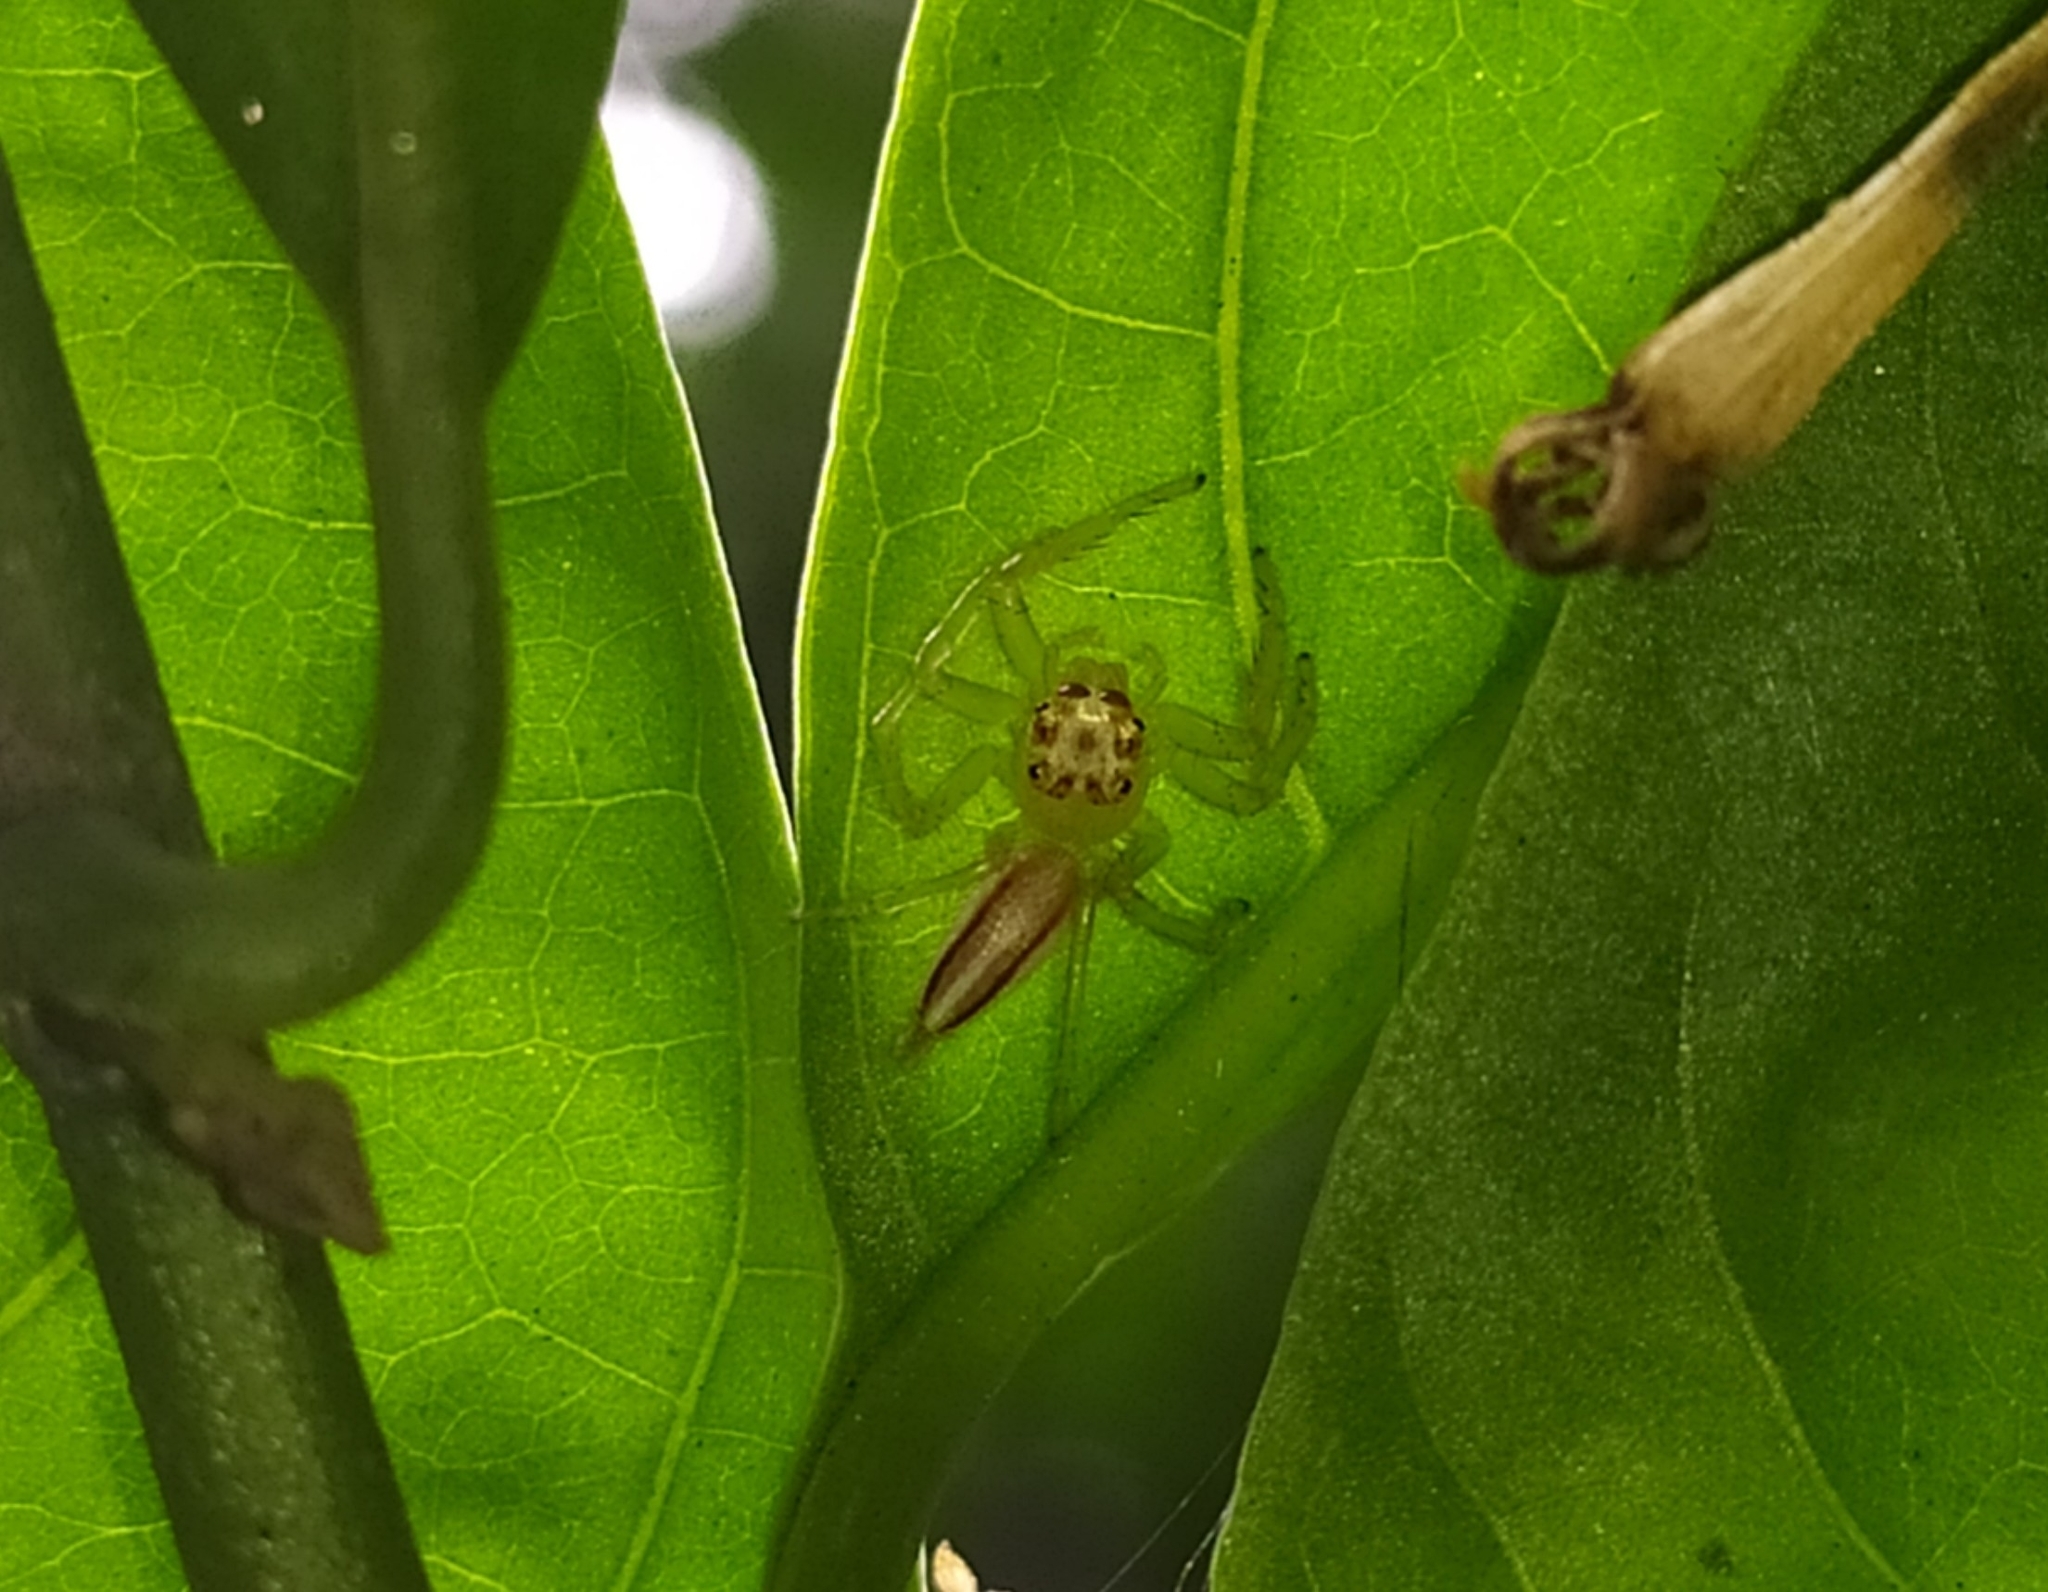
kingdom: Animalia
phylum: Arthropoda
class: Arachnida
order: Araneae
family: Salticidae
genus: Telamonia
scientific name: Telamonia dimidiata
